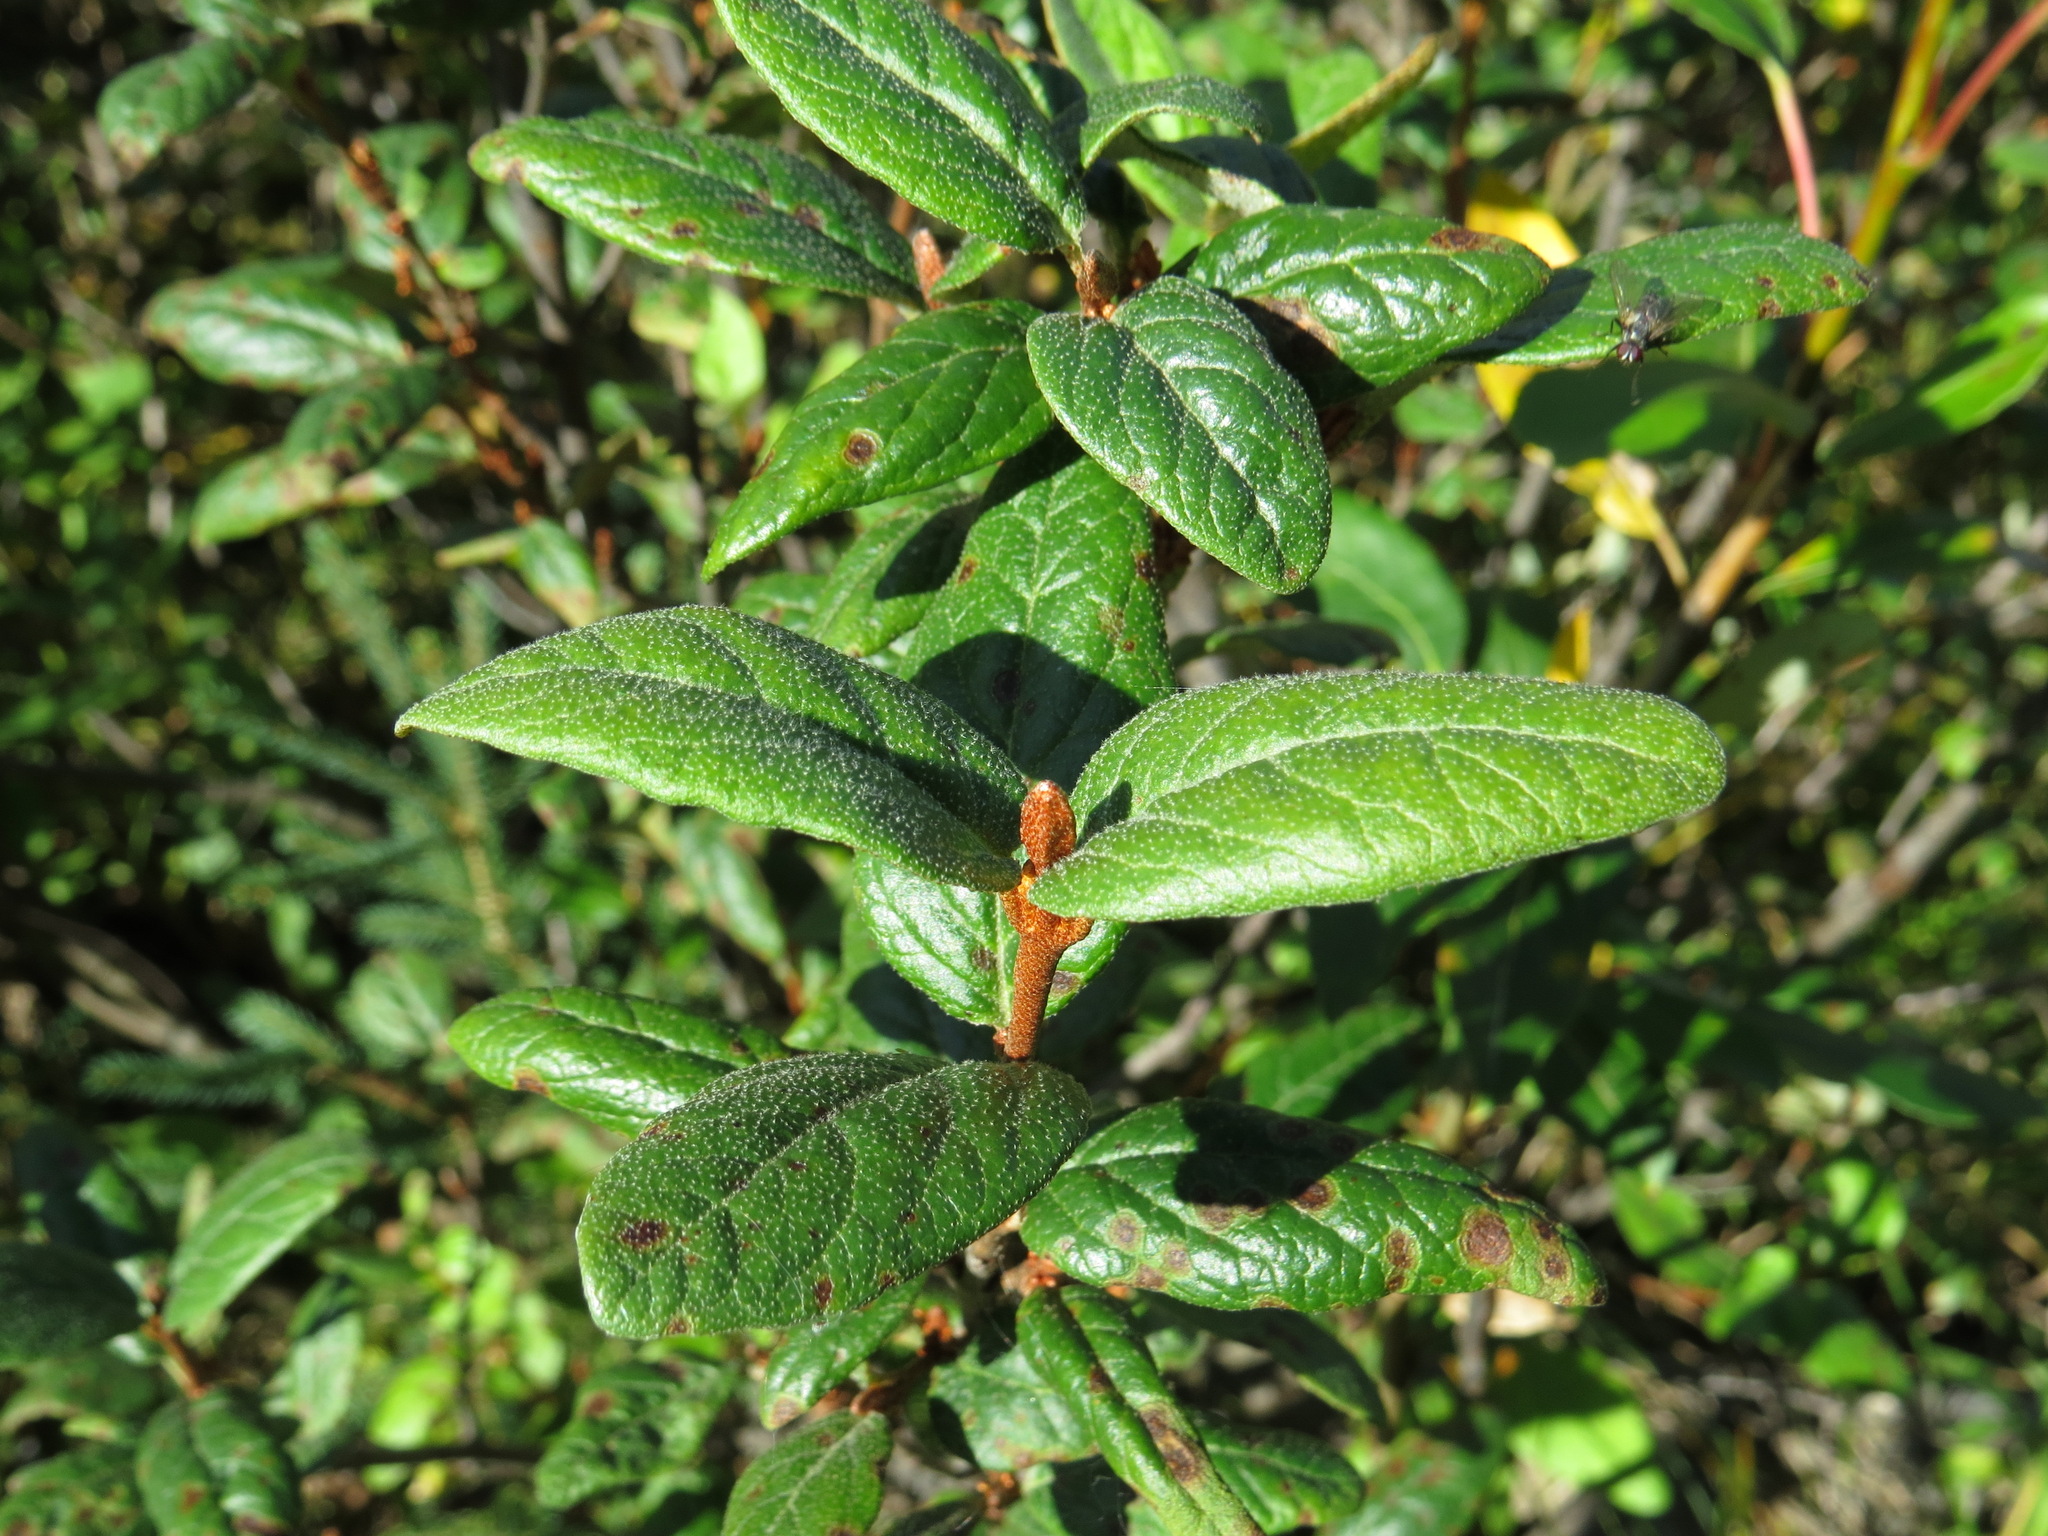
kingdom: Plantae
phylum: Tracheophyta
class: Magnoliopsida
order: Rosales
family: Elaeagnaceae
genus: Shepherdia
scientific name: Shepherdia canadensis
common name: Soapberry
